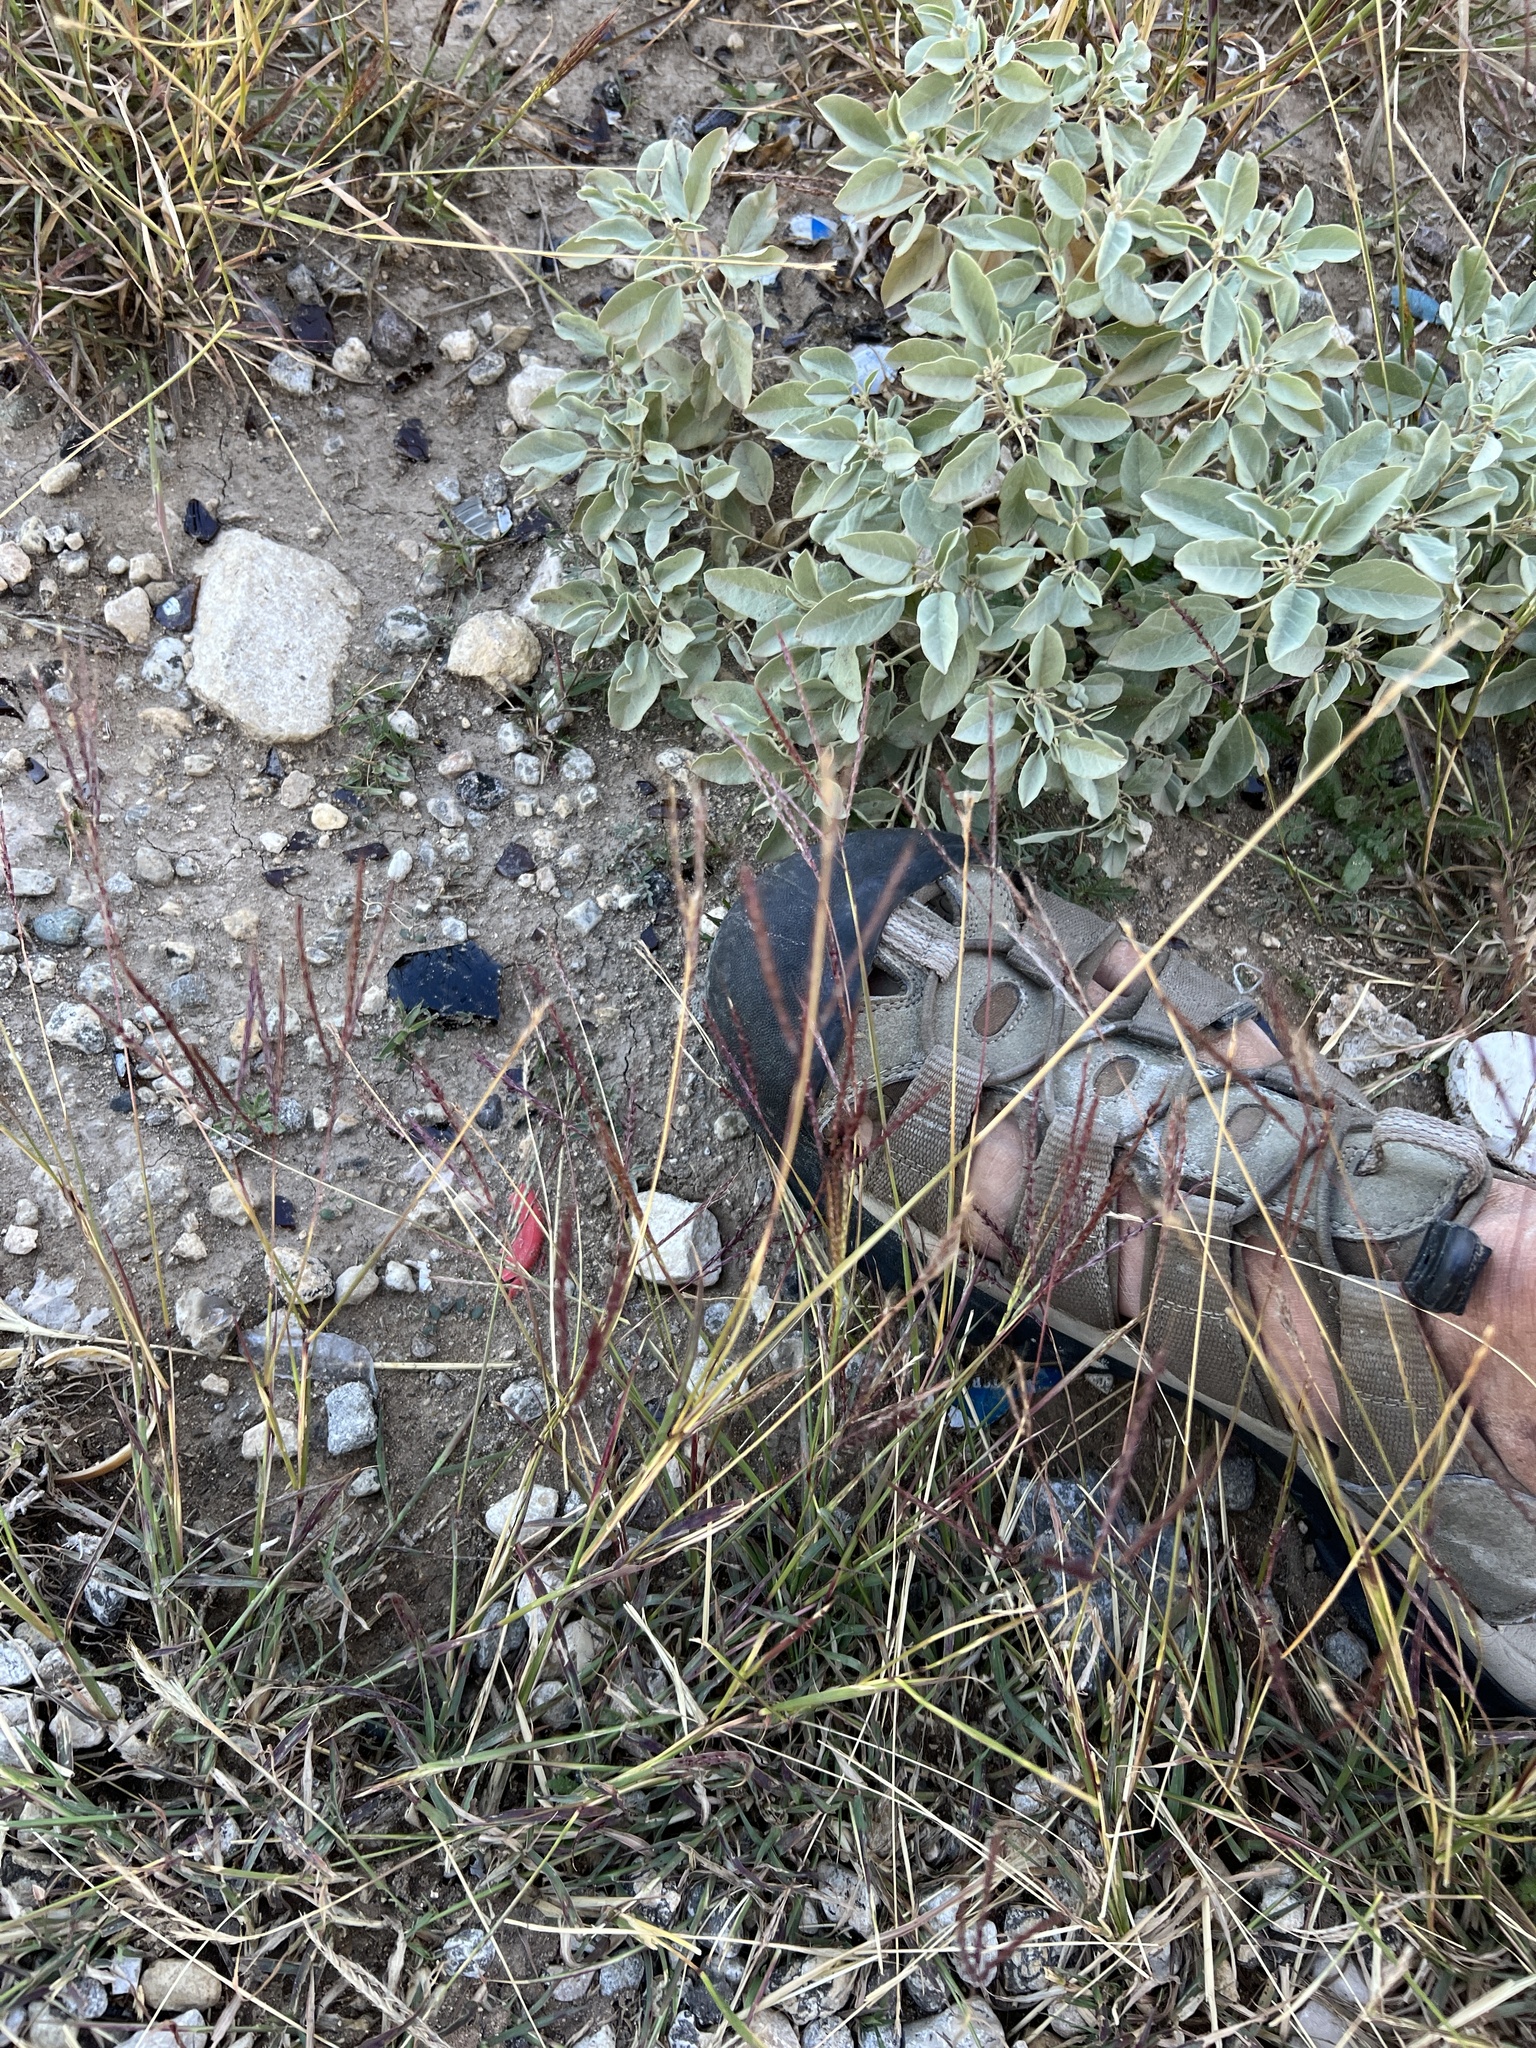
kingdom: Plantae
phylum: Tracheophyta
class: Liliopsida
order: Poales
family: Poaceae
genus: Bothriochloa
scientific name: Bothriochloa ischaemum
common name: Yellow bluestem
